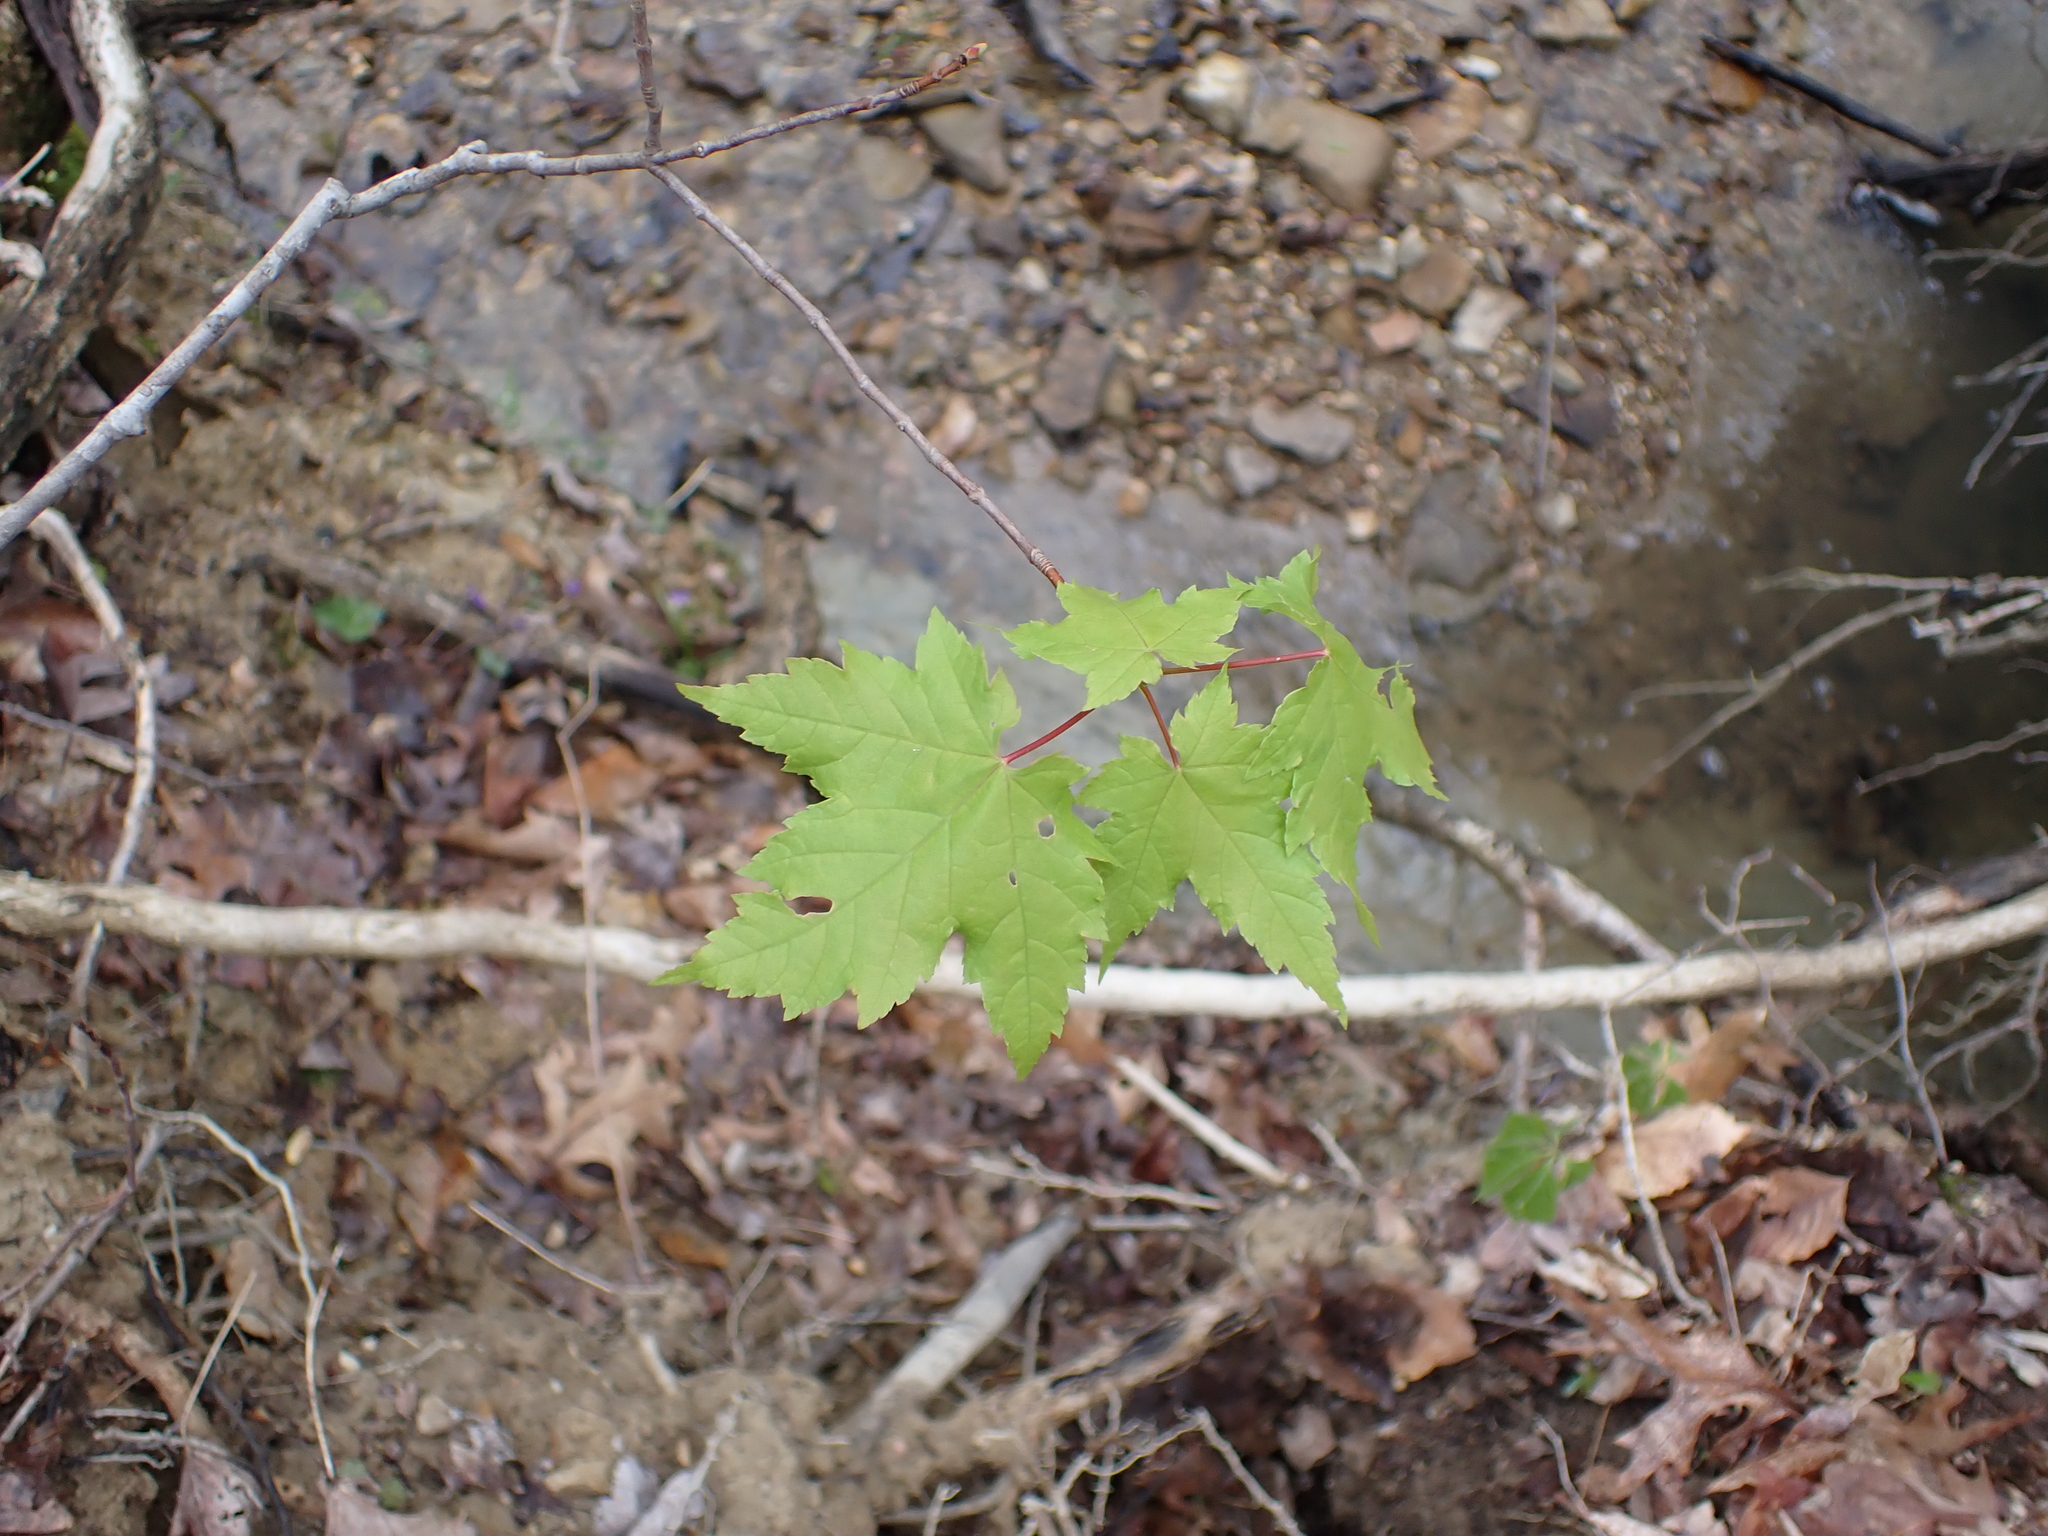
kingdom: Plantae
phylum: Tracheophyta
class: Magnoliopsida
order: Sapindales
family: Sapindaceae
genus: Acer
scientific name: Acer rubrum
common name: Red maple
